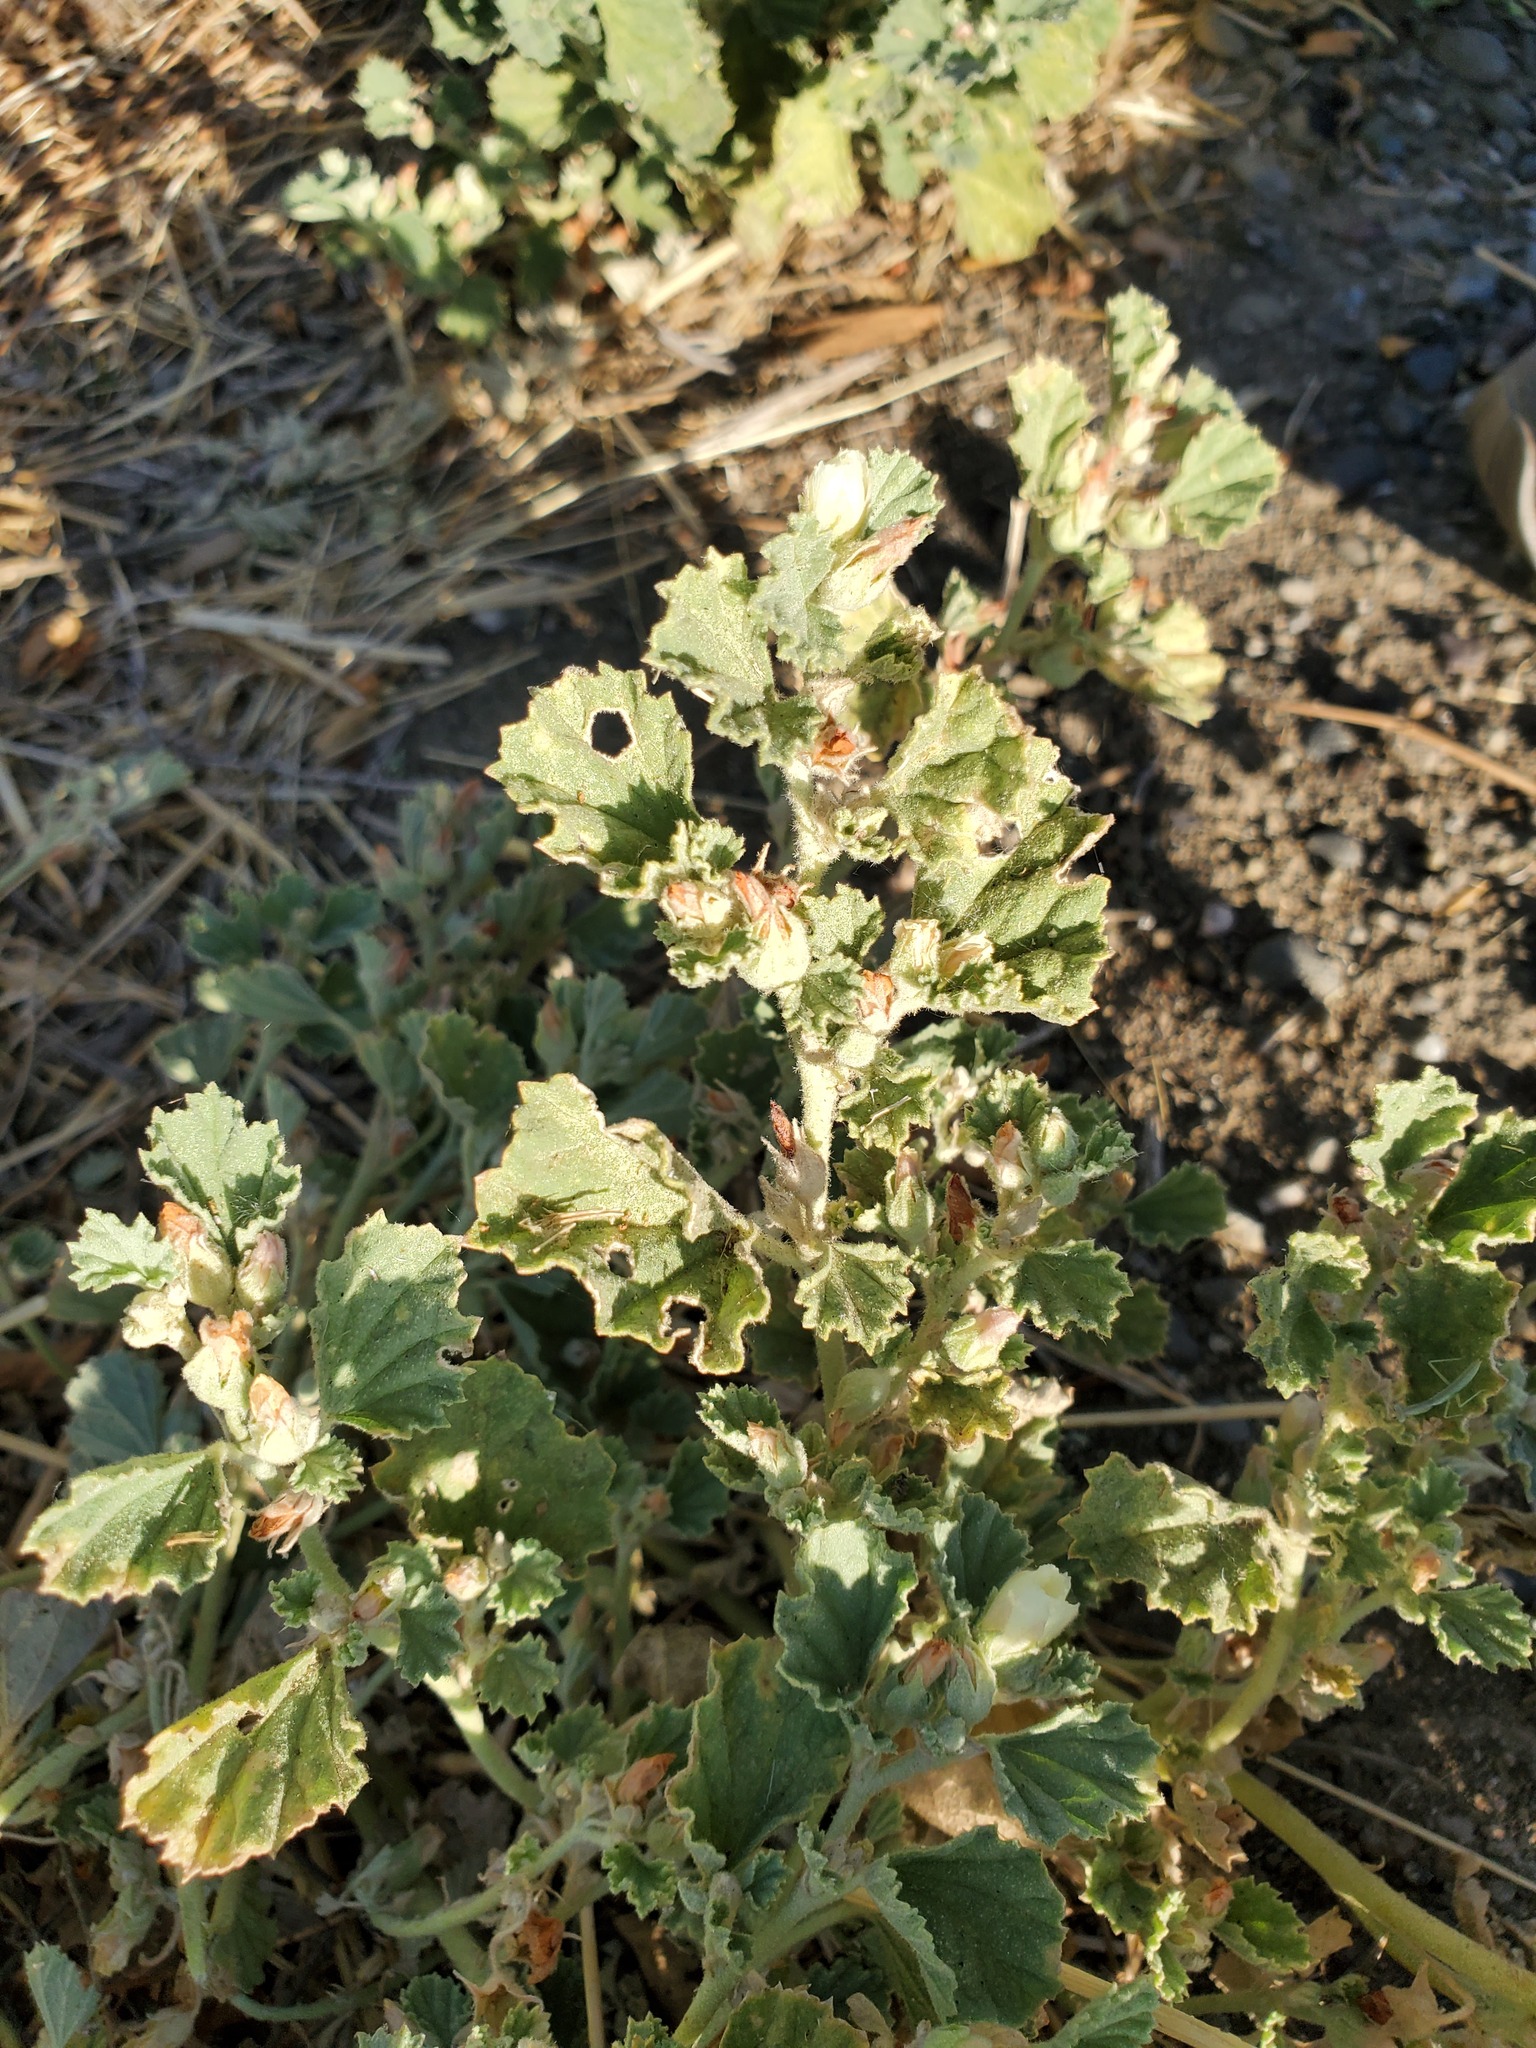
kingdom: Plantae
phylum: Tracheophyta
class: Magnoliopsida
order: Malvales
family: Malvaceae
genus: Malvella
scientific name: Malvella leprosa
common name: Alkali-mallow
